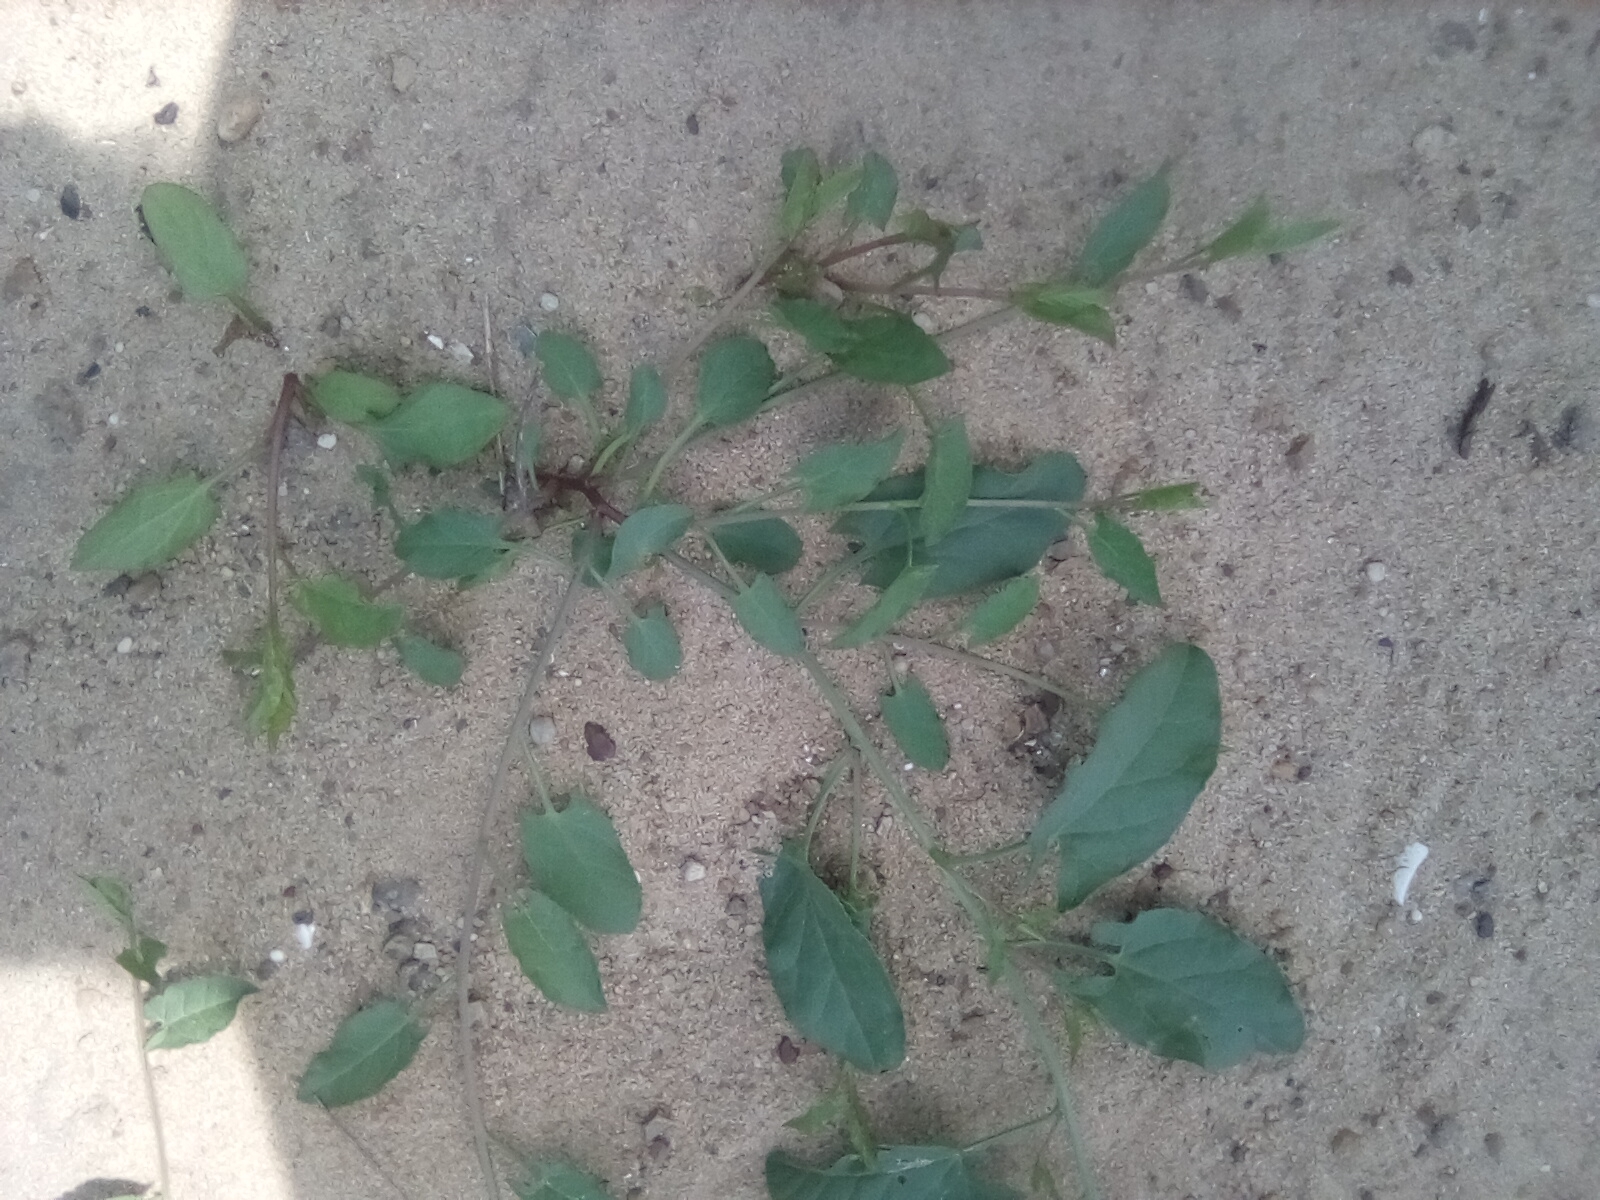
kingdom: Plantae
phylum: Tracheophyta
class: Magnoliopsida
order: Solanales
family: Convolvulaceae
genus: Convolvulus
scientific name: Convolvulus arvensis
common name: Field bindweed
